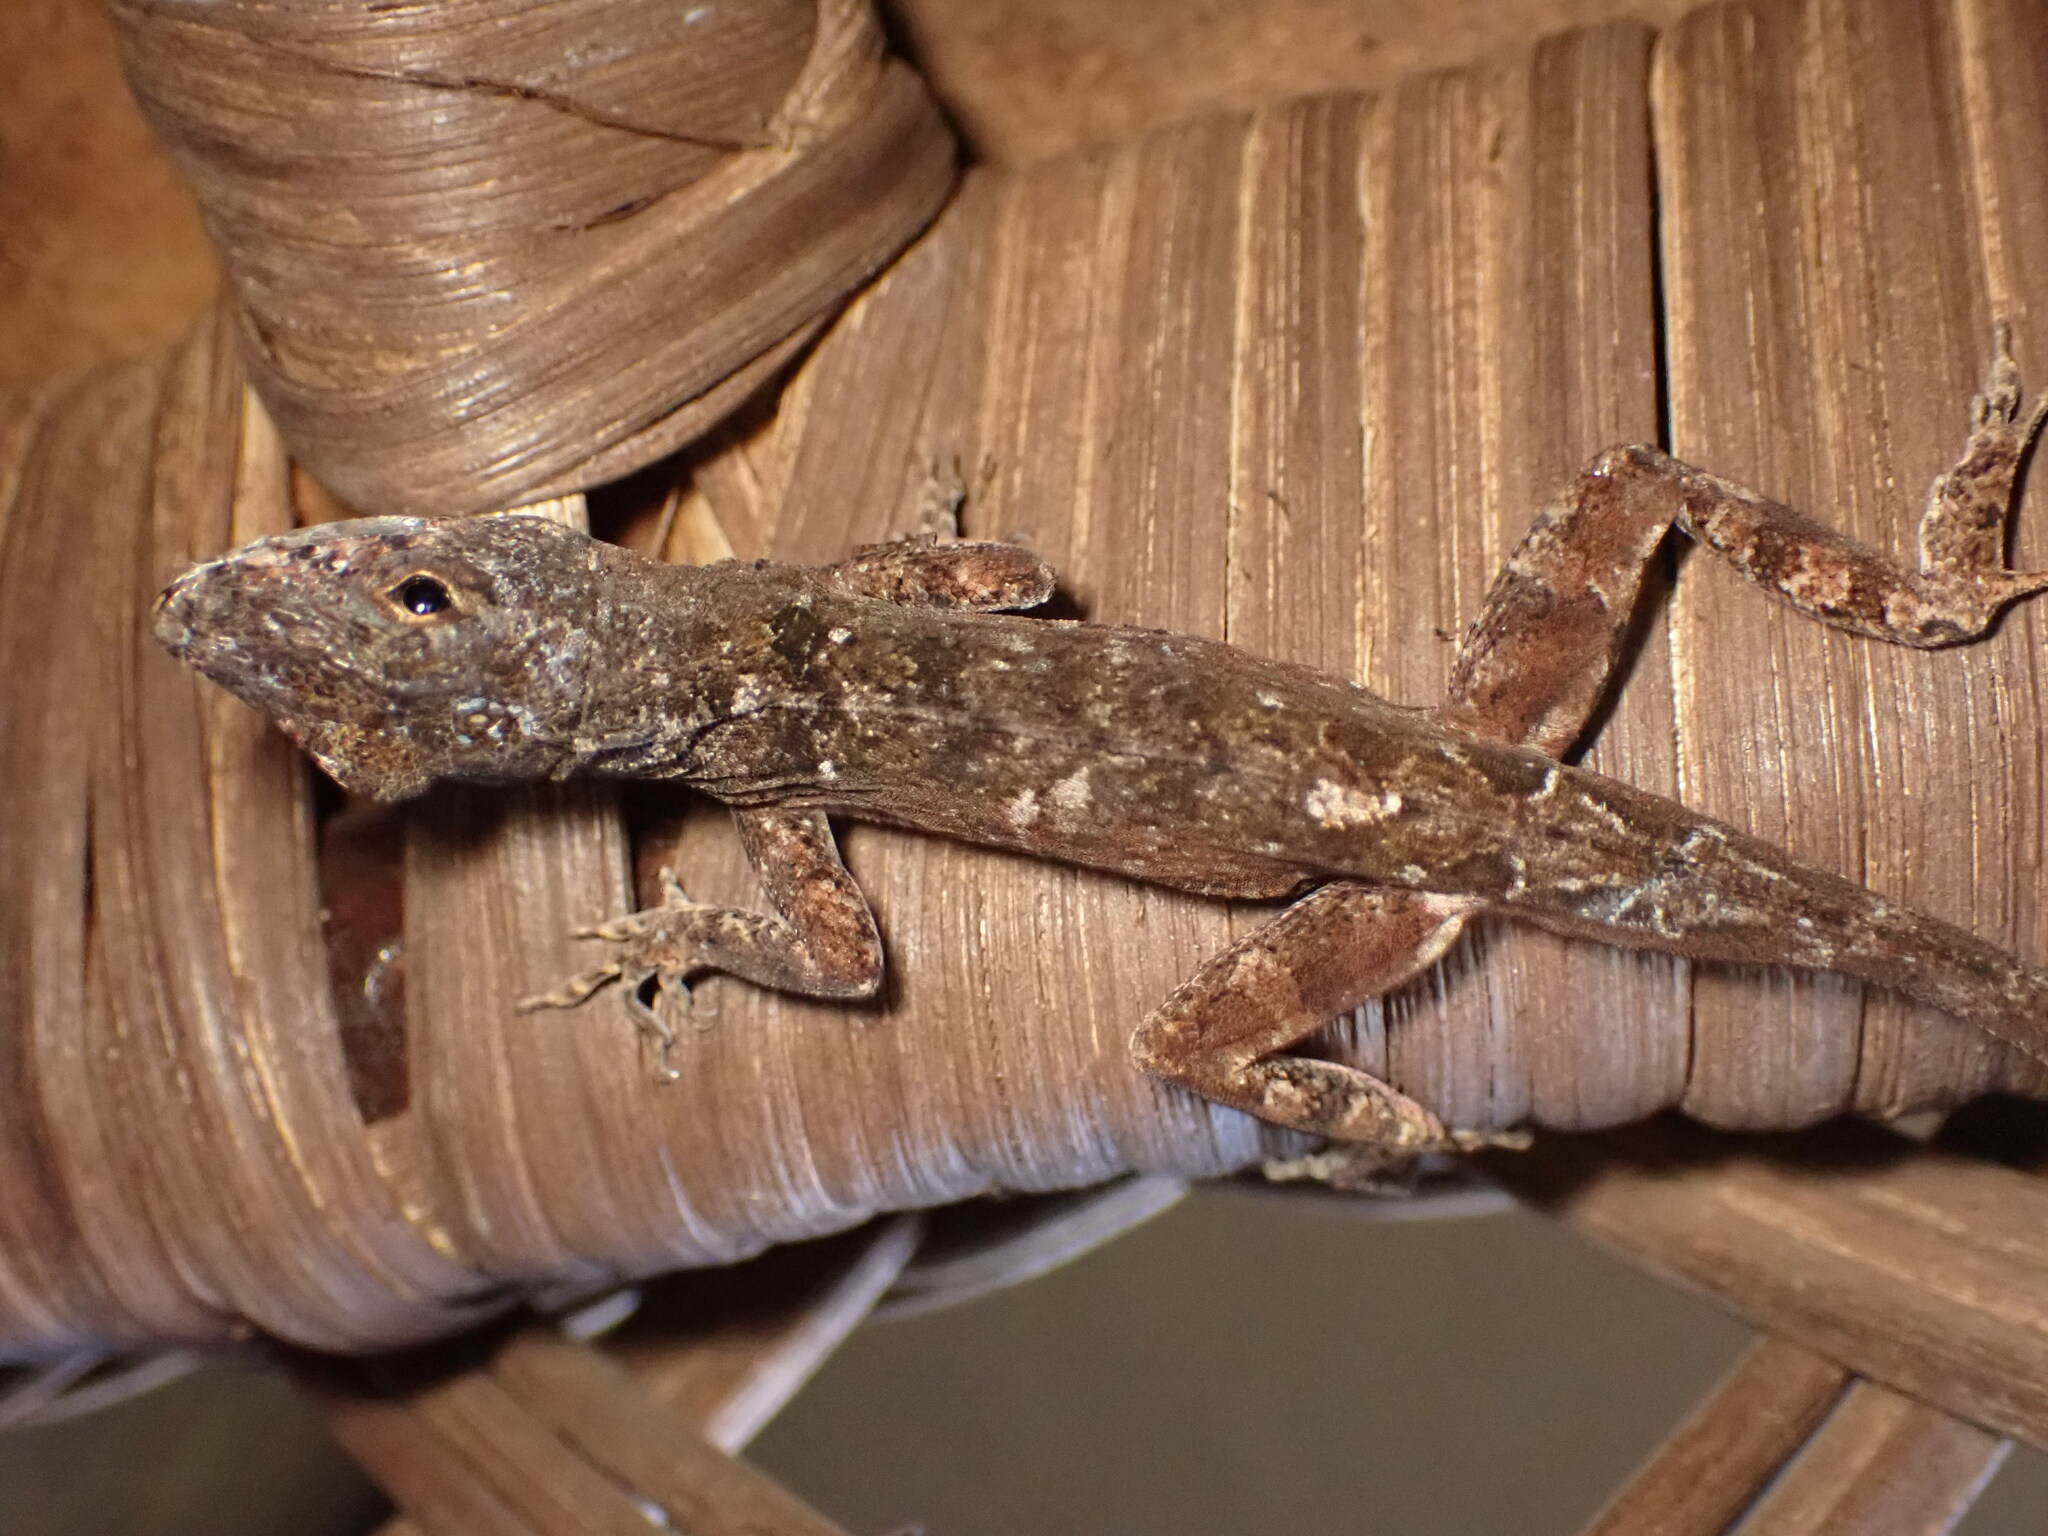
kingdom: Animalia
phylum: Chordata
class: Squamata
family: Dactyloidae
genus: Anolis
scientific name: Anolis sagrei
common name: Brown anole
